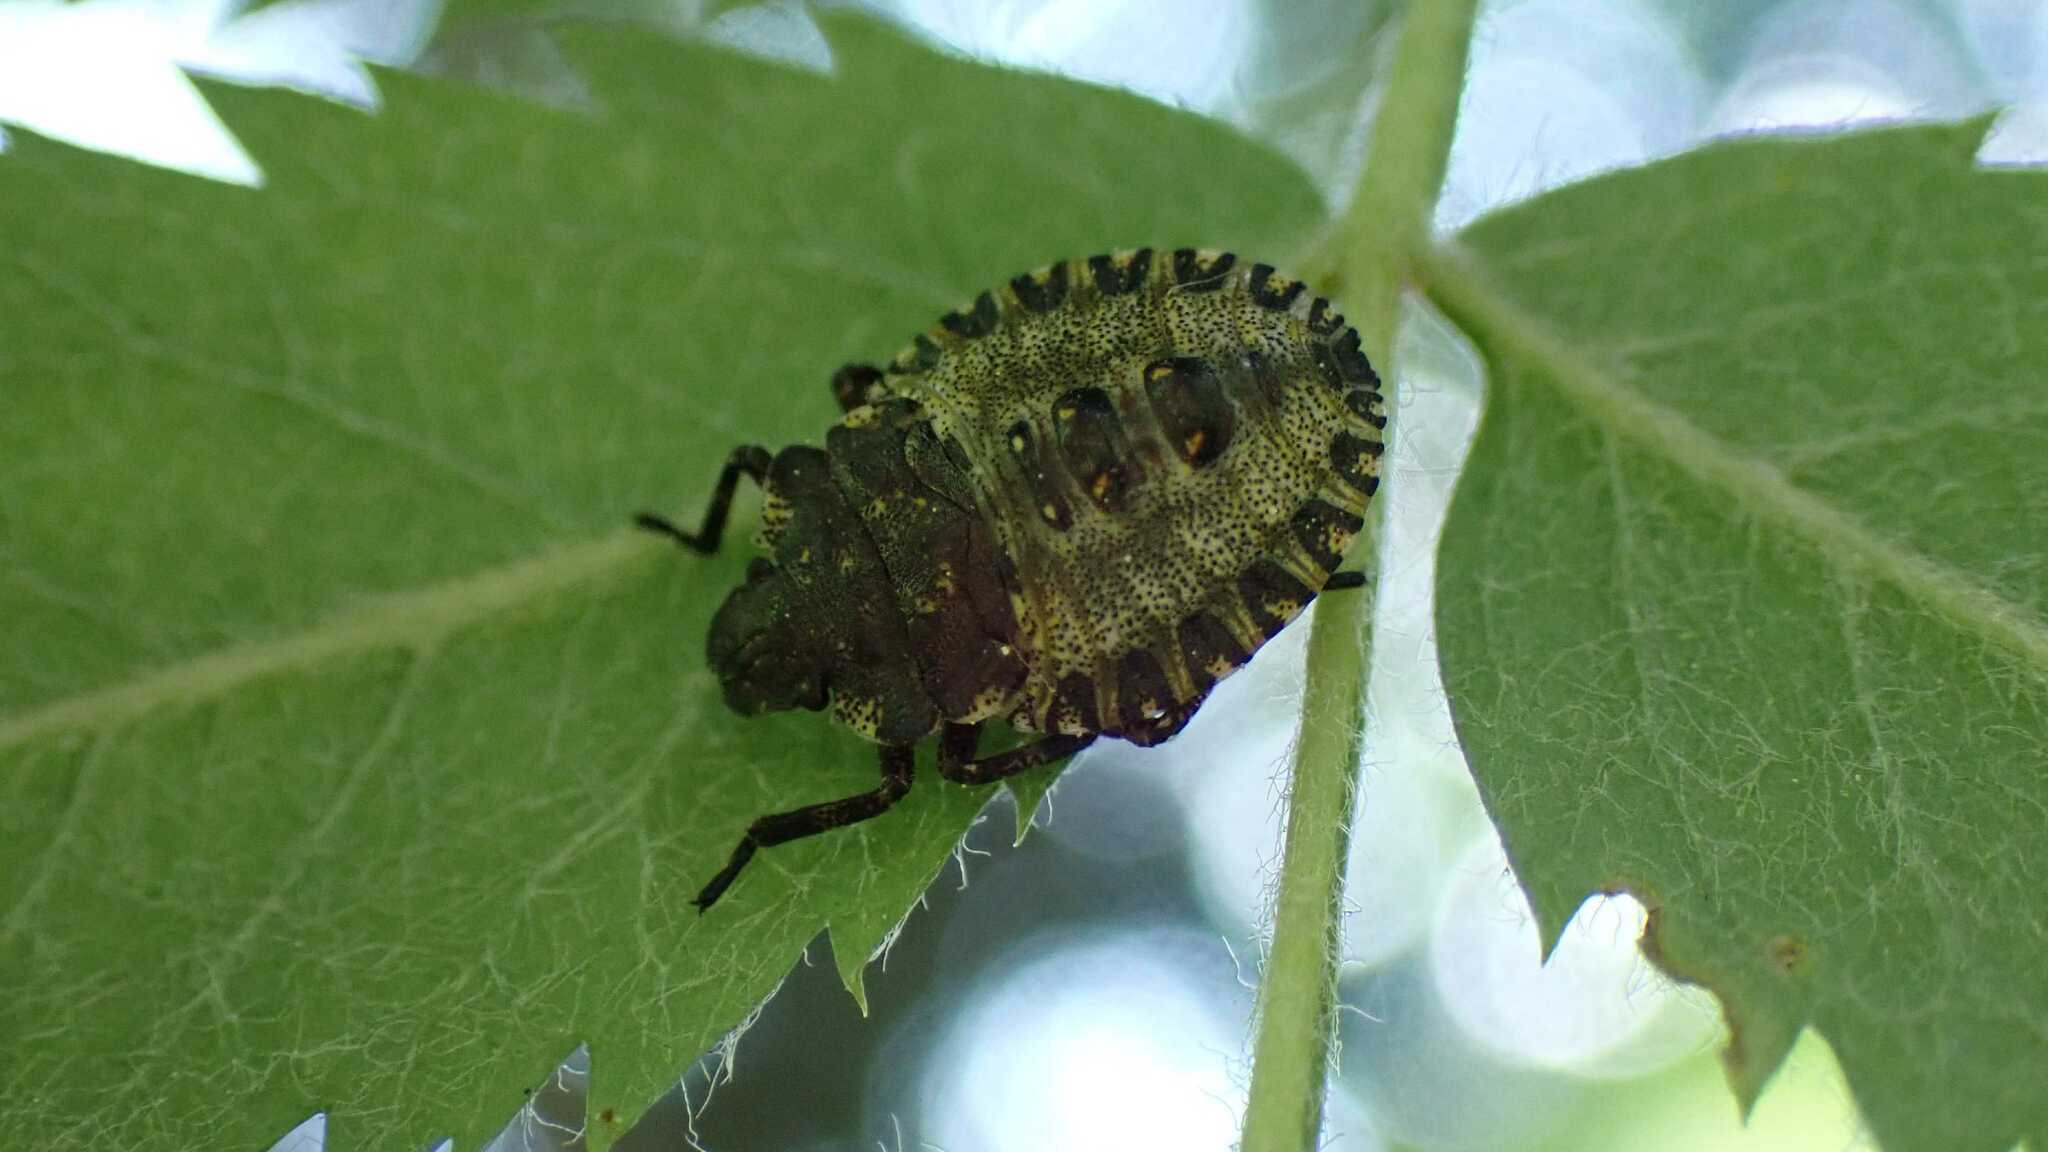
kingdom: Animalia
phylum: Arthropoda
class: Insecta
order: Hemiptera
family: Pentatomidae
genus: Pentatoma
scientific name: Pentatoma rufipes
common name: Forest bug
